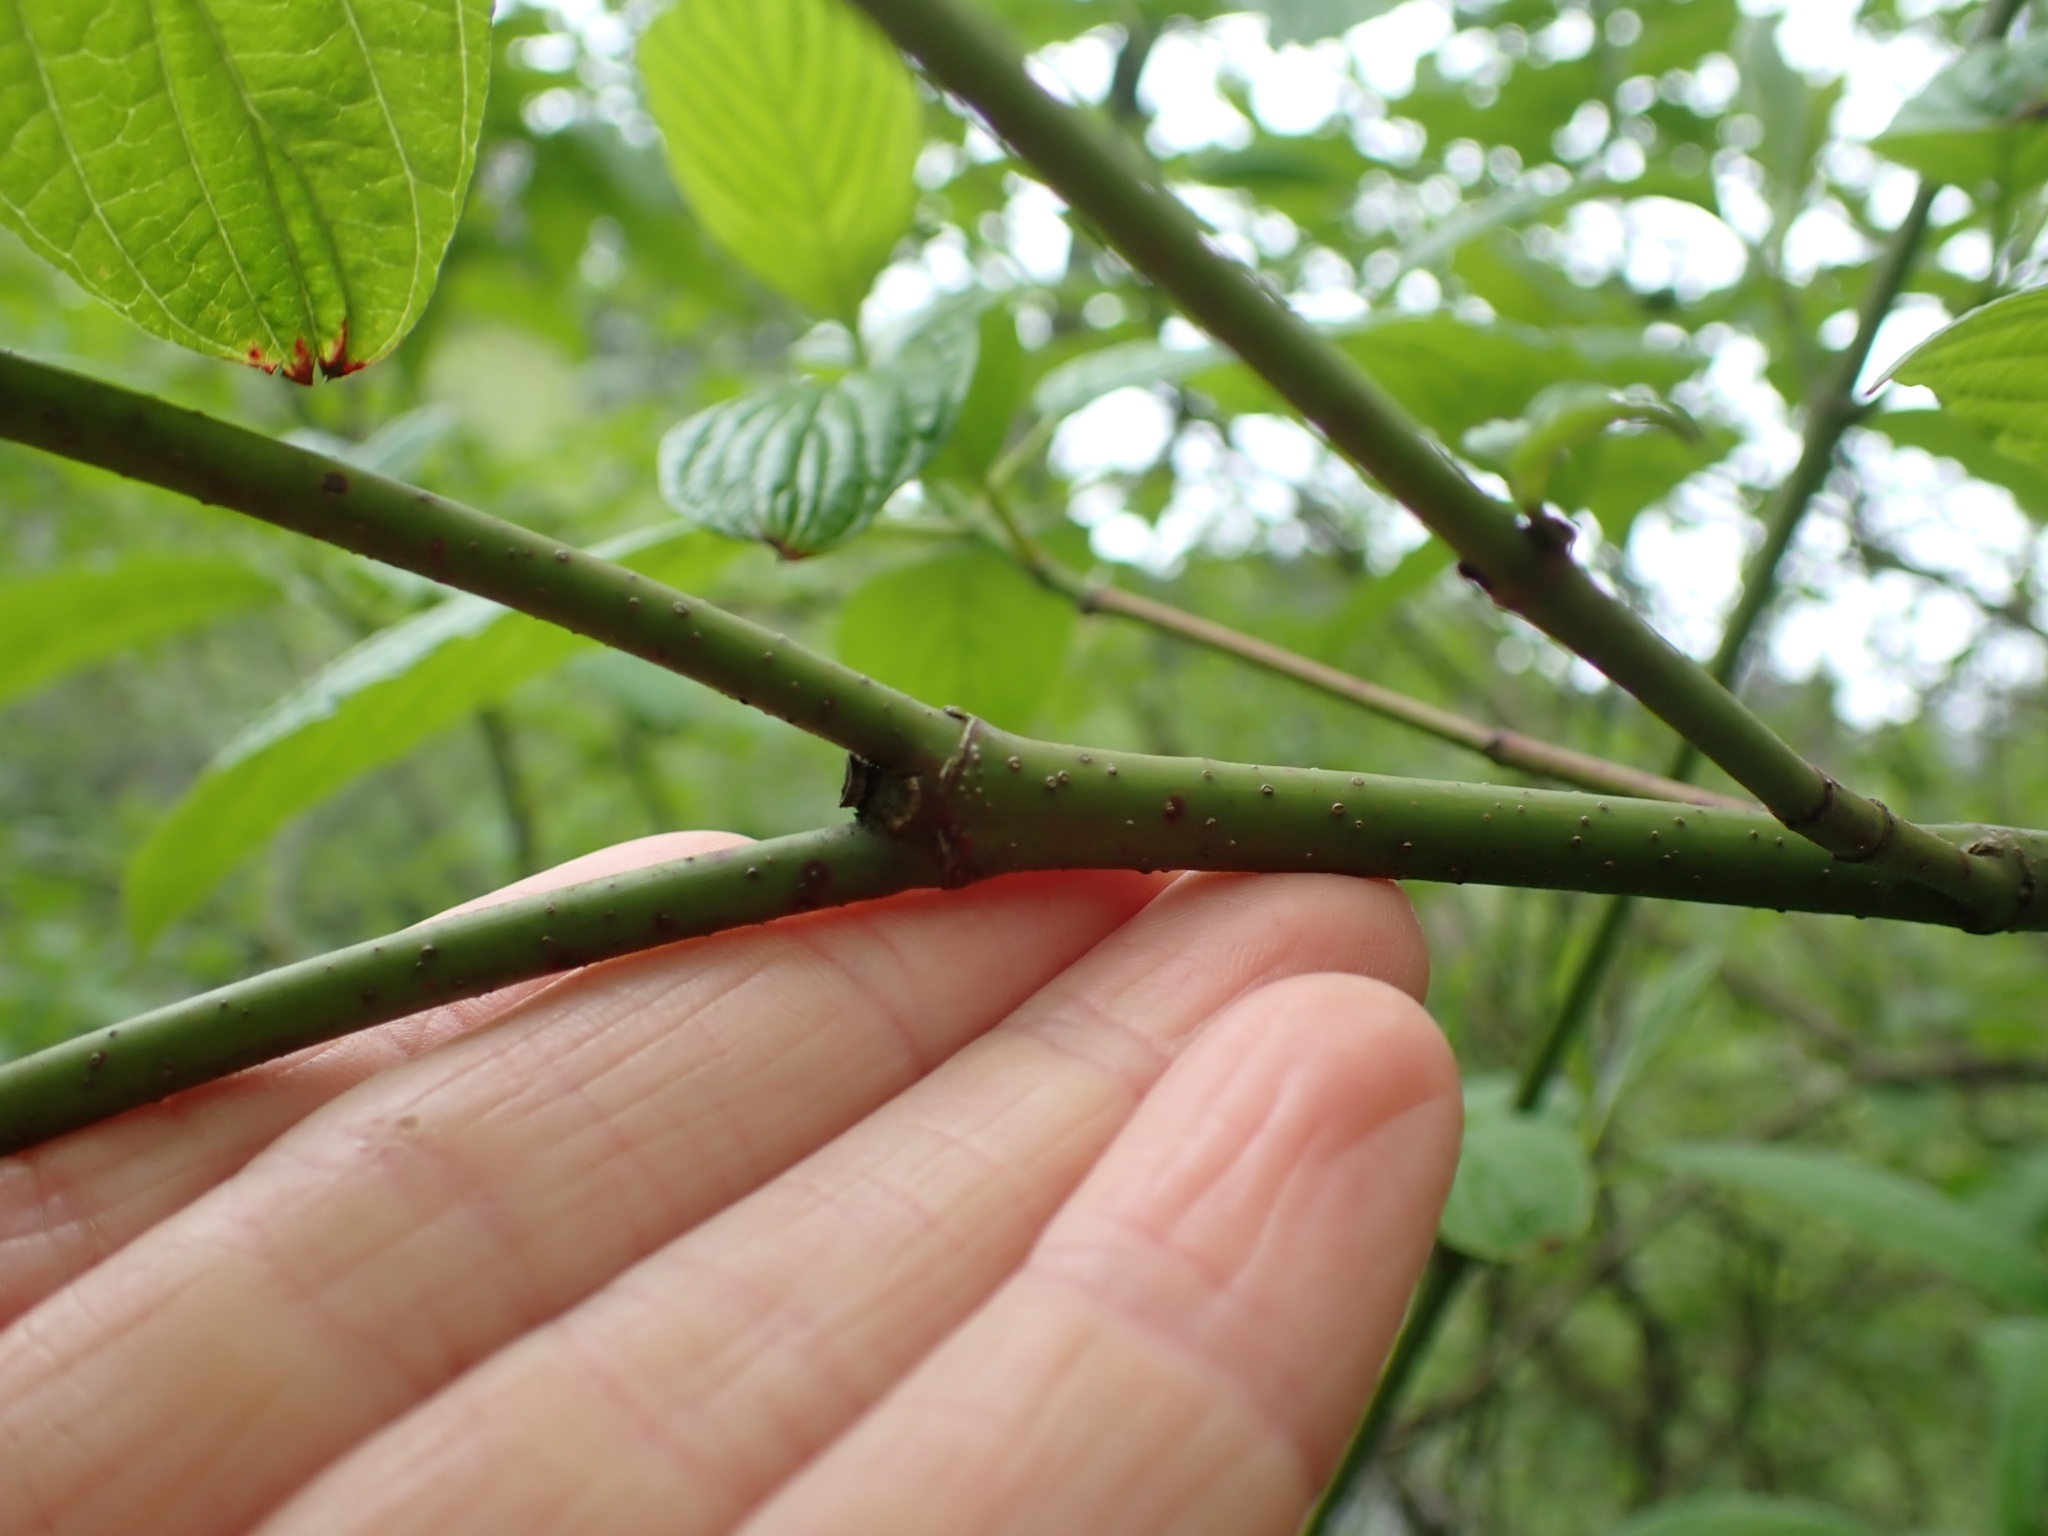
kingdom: Plantae
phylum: Tracheophyta
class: Magnoliopsida
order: Cornales
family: Cornaceae
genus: Cornus
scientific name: Cornus sericea
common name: Red-osier dogwood
